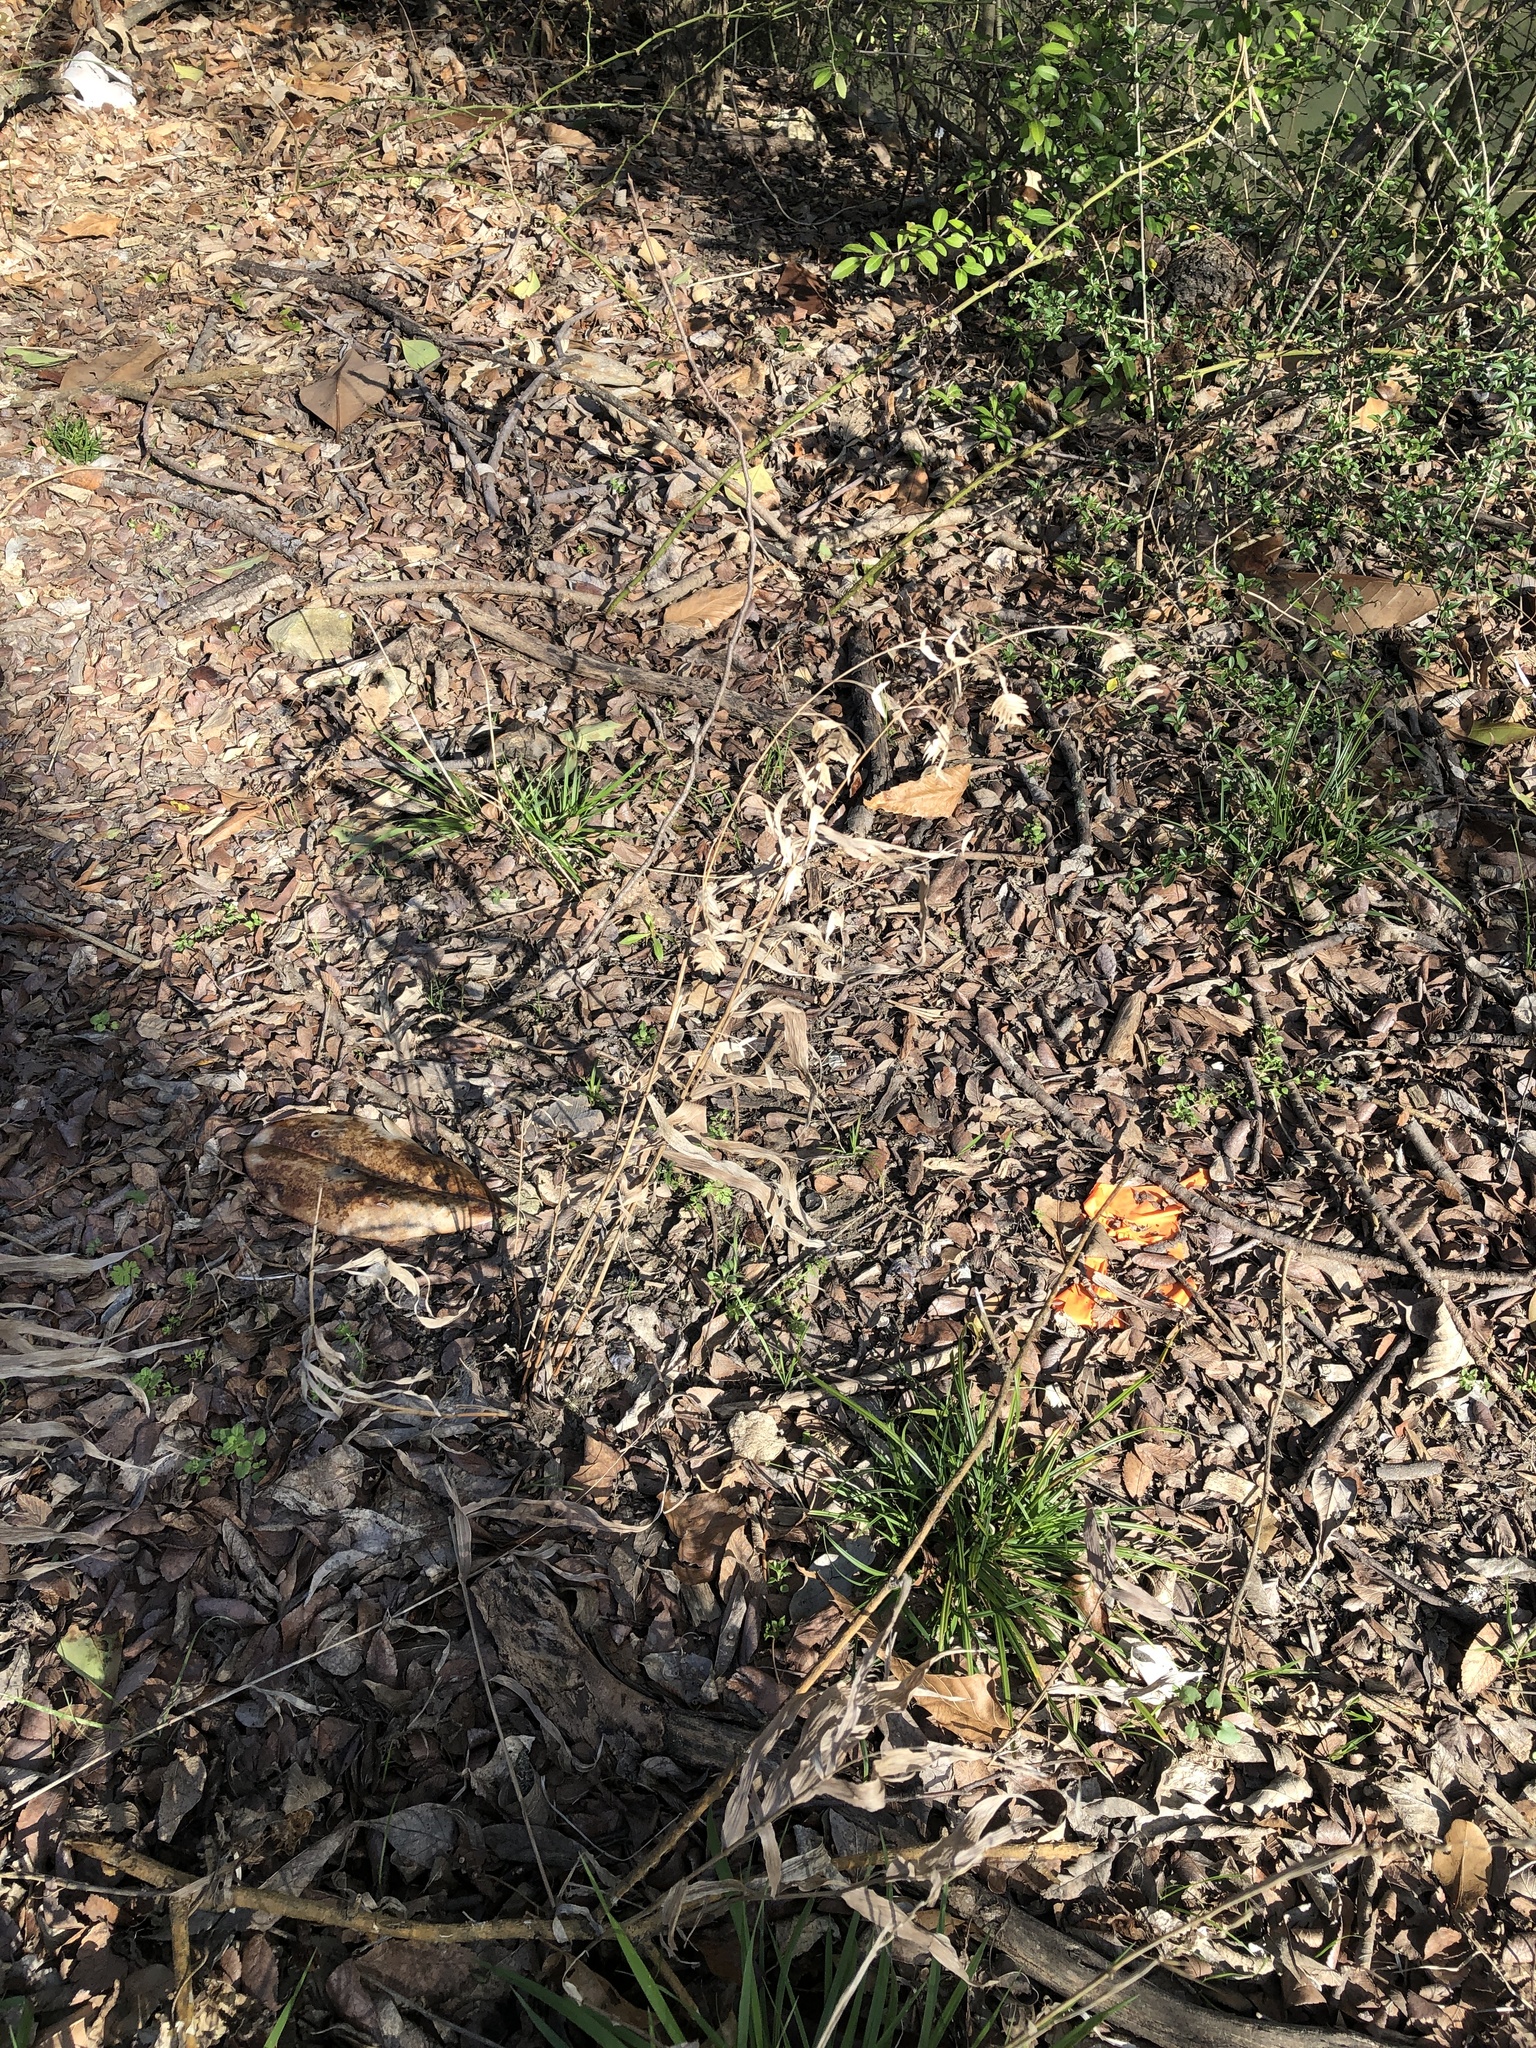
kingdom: Plantae
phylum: Tracheophyta
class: Liliopsida
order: Poales
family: Poaceae
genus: Chasmanthium
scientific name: Chasmanthium latifolium
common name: Broad-leaved chasmanthium
